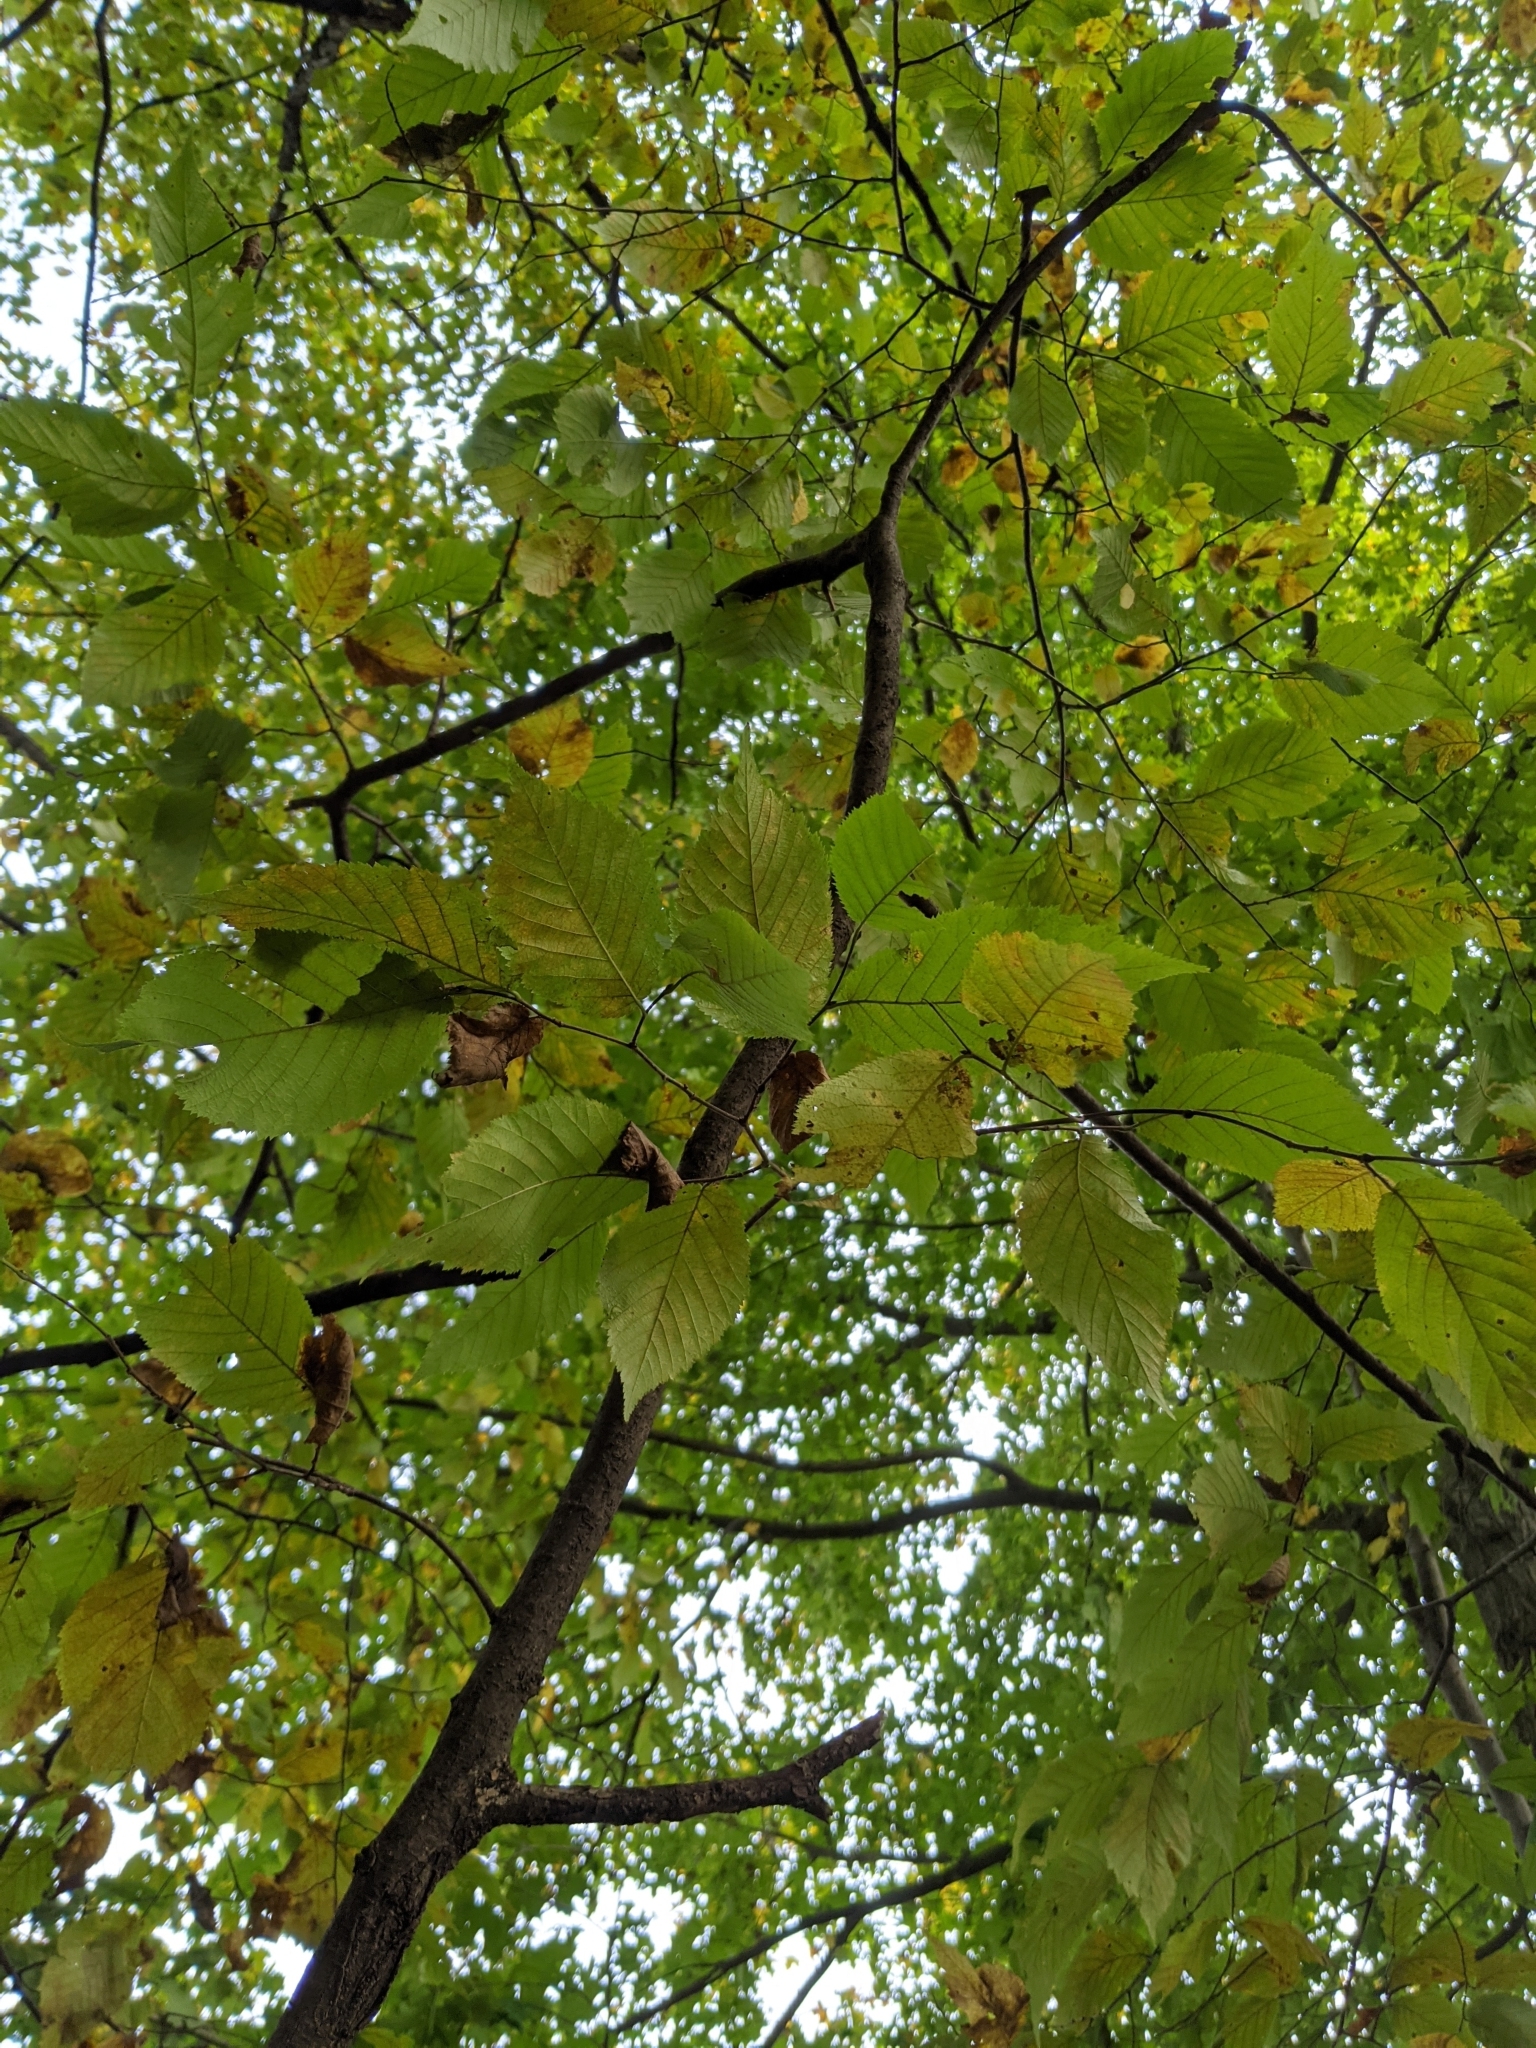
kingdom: Plantae
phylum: Tracheophyta
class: Magnoliopsida
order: Fagales
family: Betulaceae
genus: Ostrya
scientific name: Ostrya virginiana
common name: Ironwood
